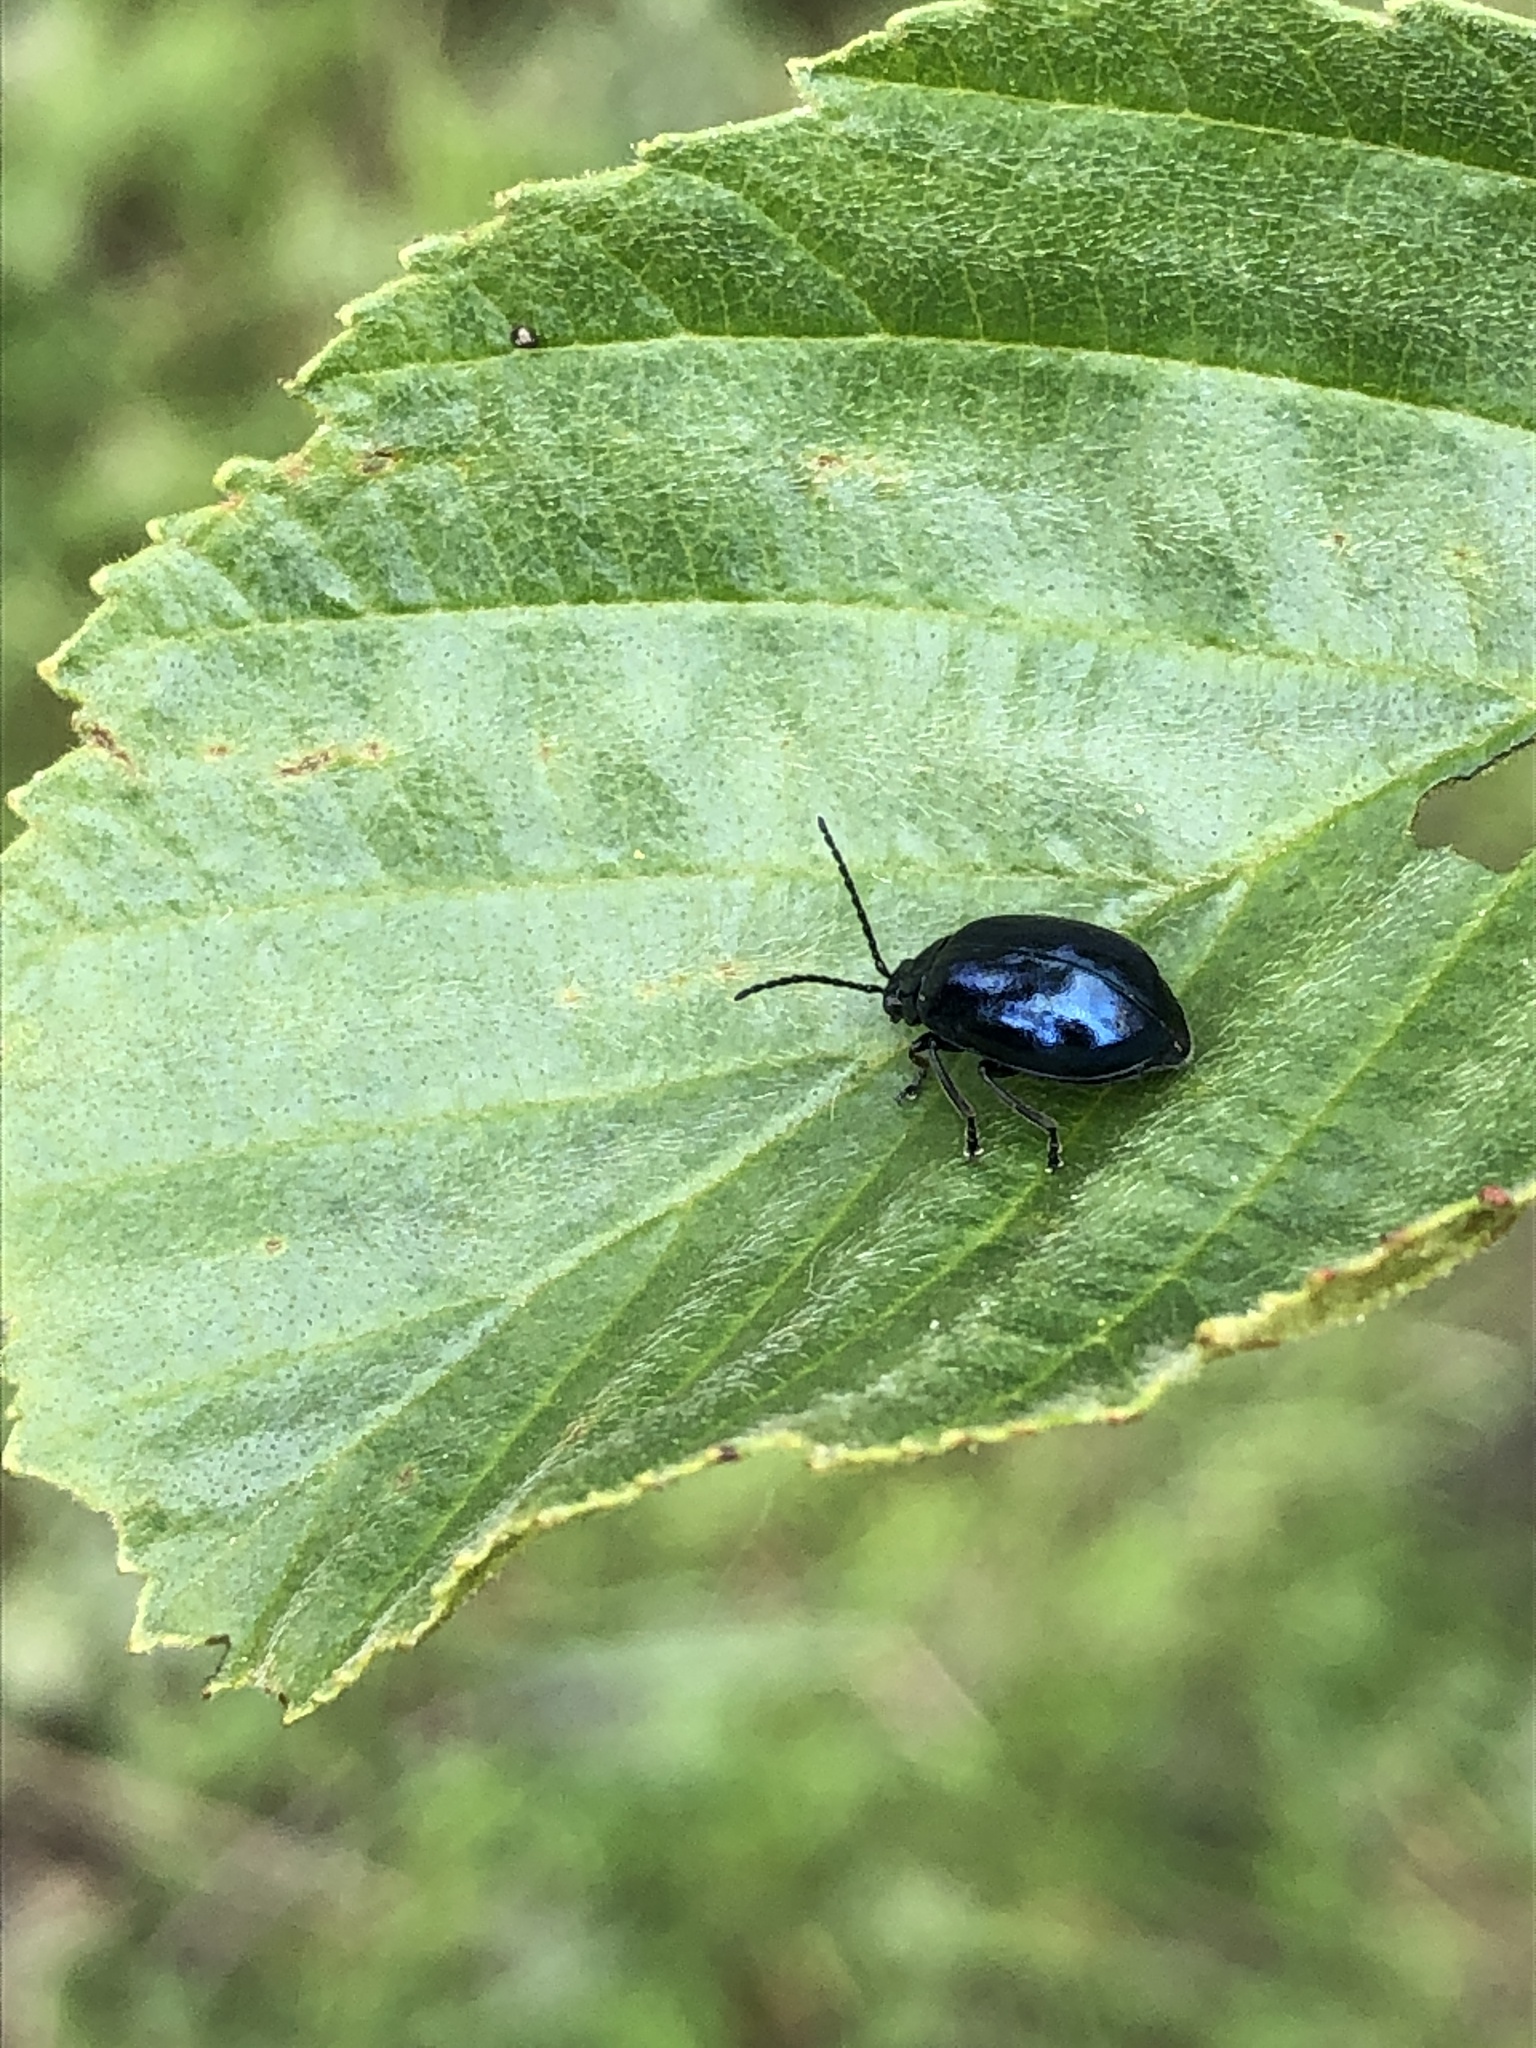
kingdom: Animalia
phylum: Arthropoda
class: Insecta
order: Coleoptera
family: Chrysomelidae
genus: Agelastica
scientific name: Agelastica alni
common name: Alder leaf beetle
